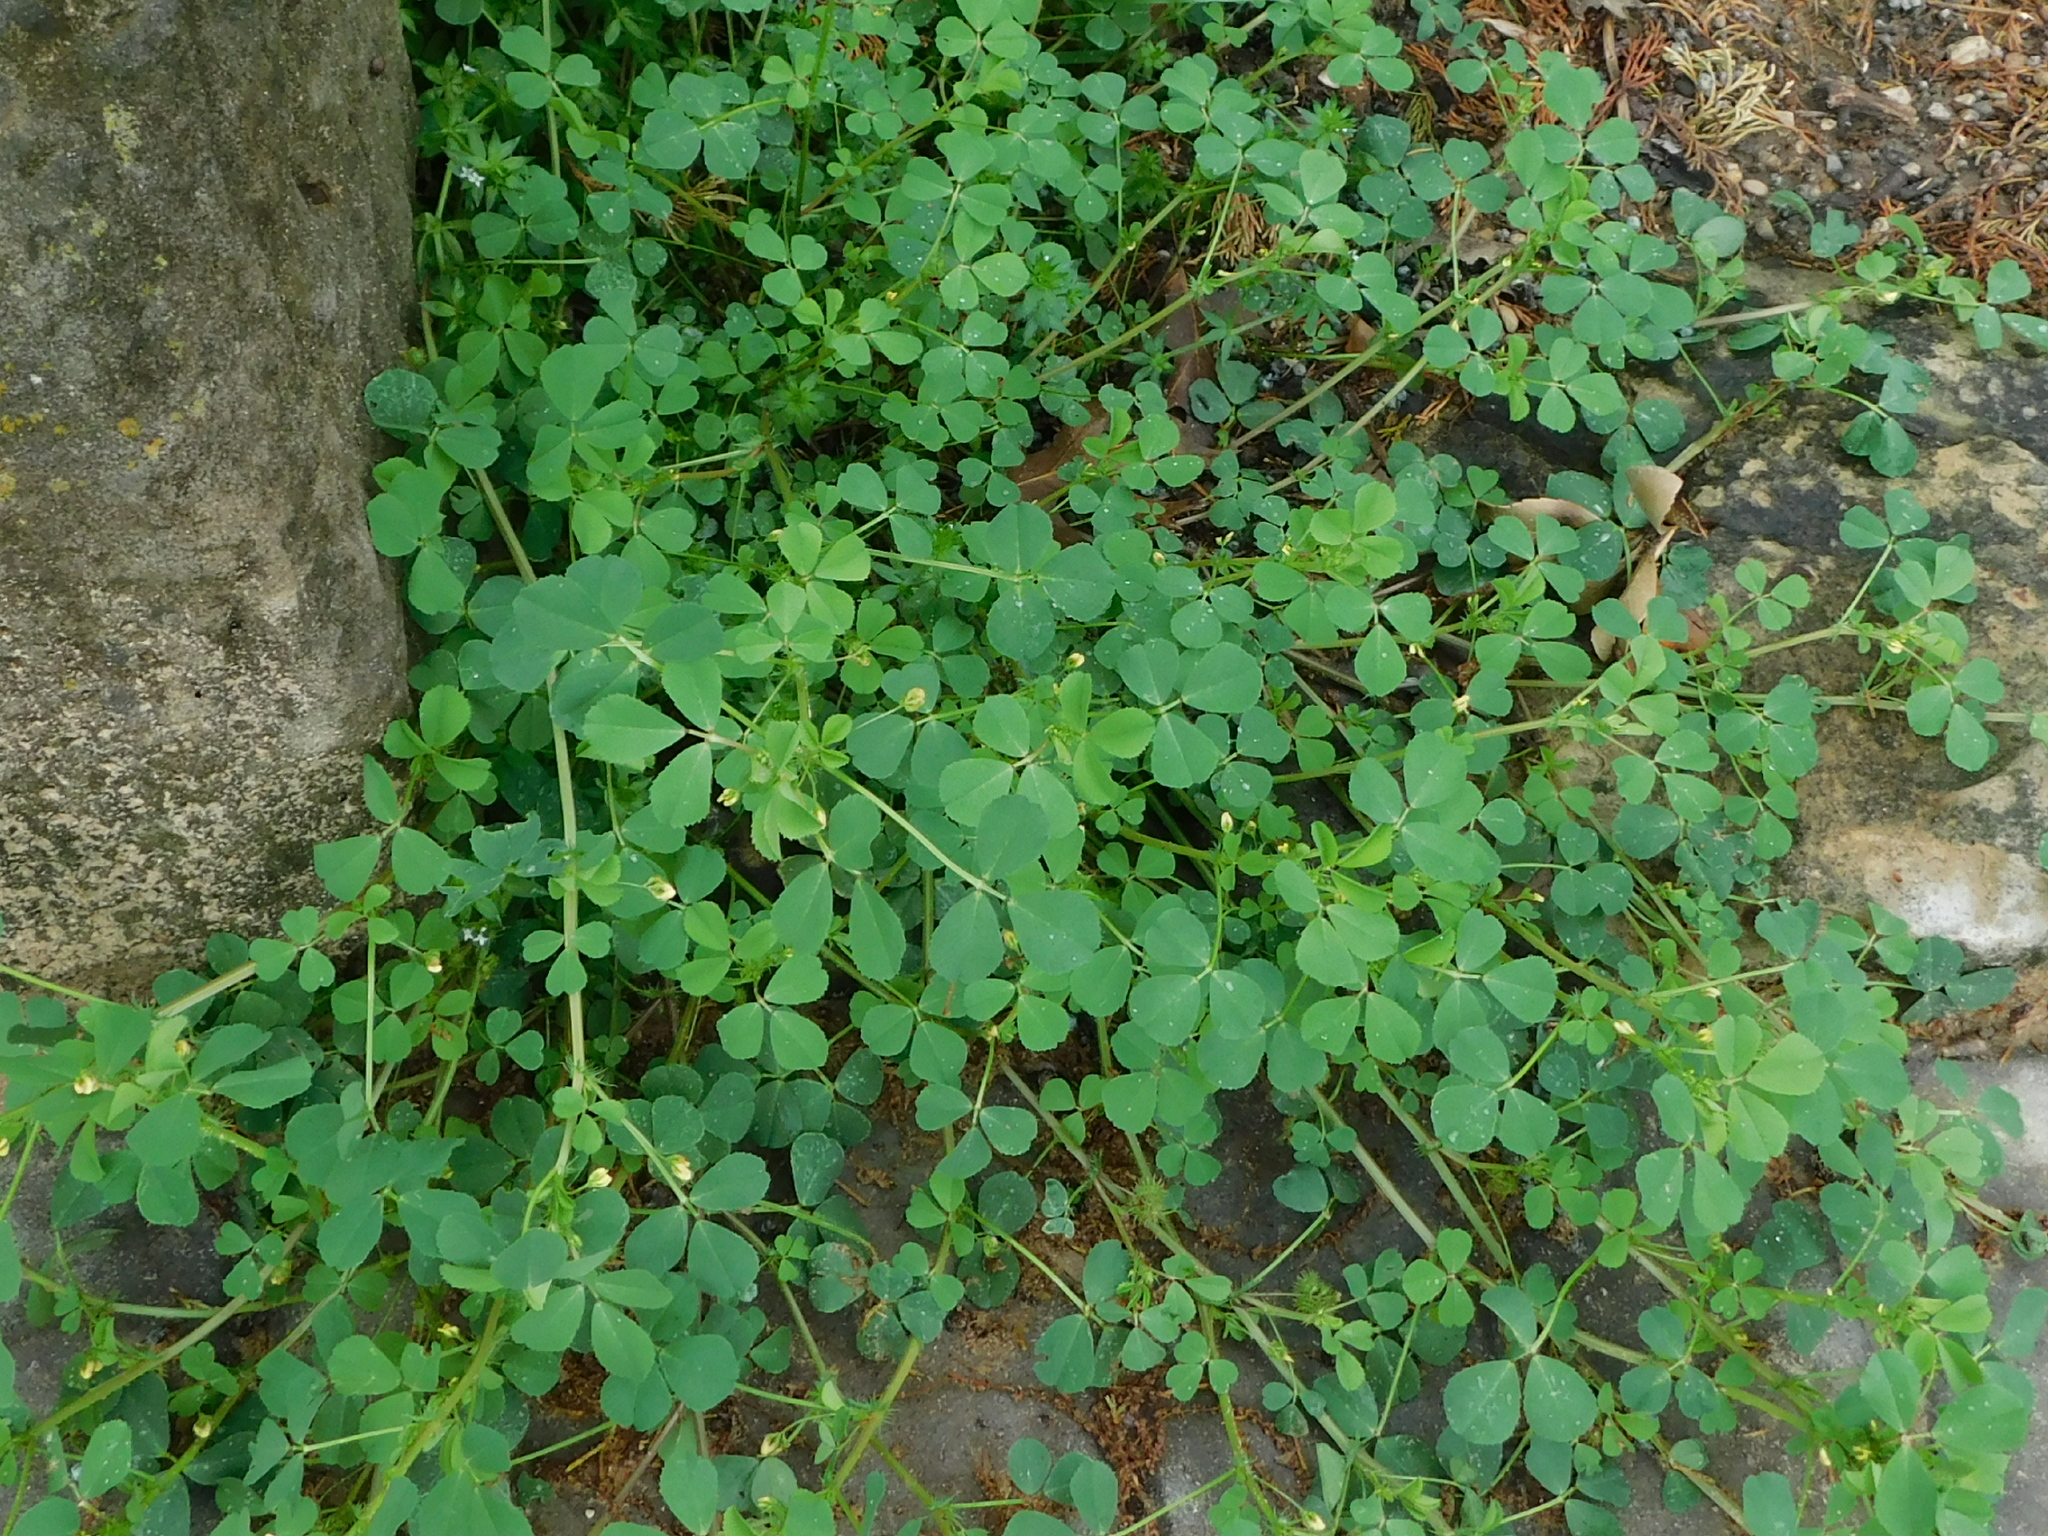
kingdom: Plantae
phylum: Tracheophyta
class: Magnoliopsida
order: Fabales
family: Fabaceae
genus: Medicago
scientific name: Medicago polymorpha
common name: Burclover
